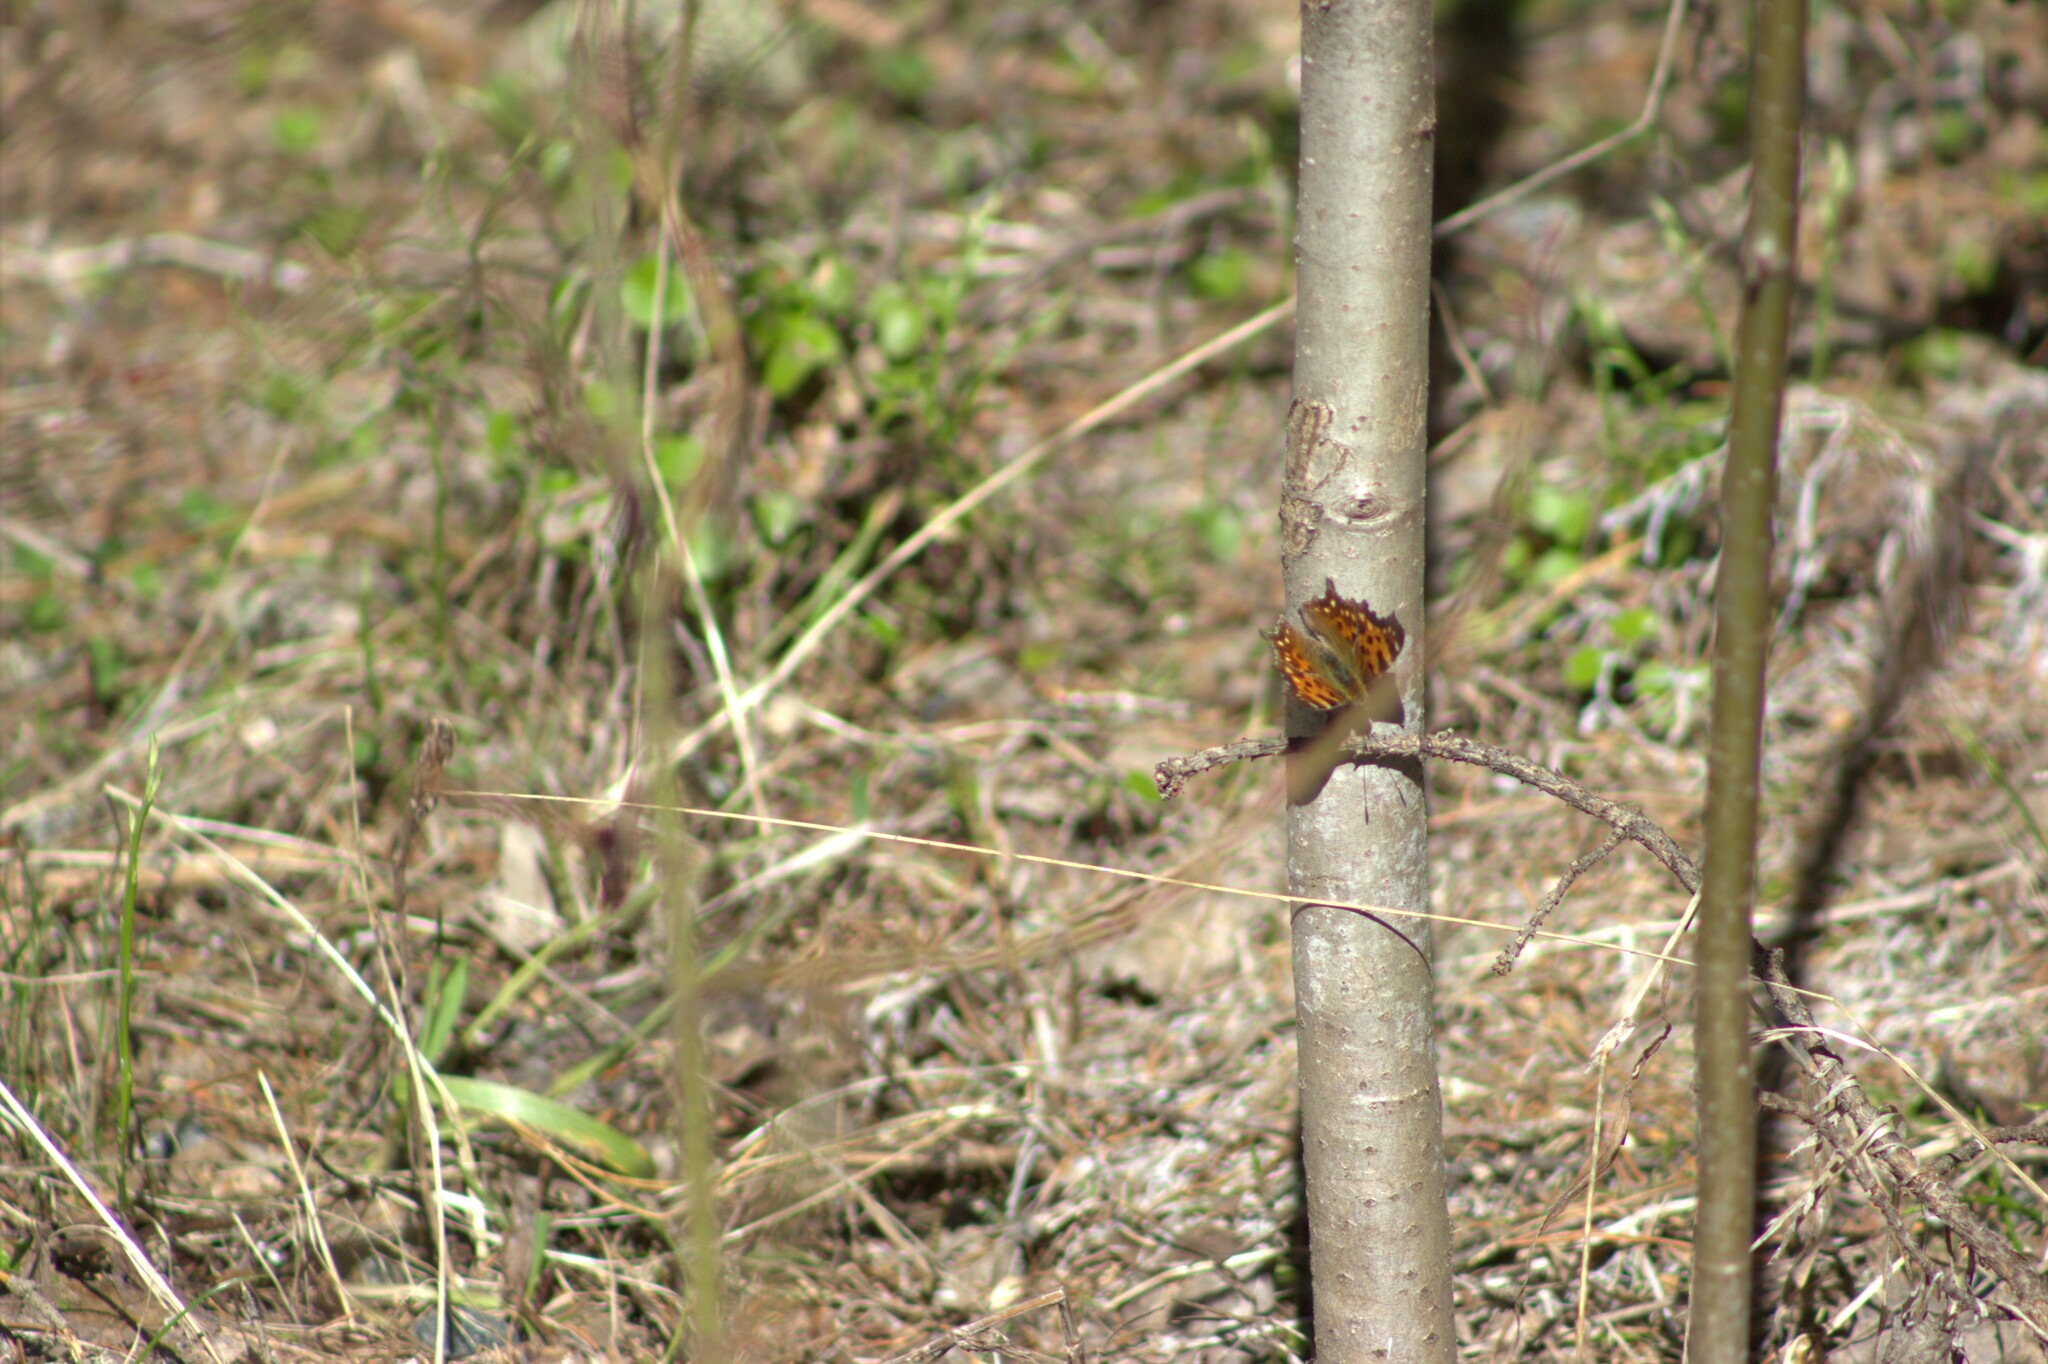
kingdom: Animalia
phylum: Arthropoda
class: Insecta
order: Lepidoptera
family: Nymphalidae
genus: Polygonia
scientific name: Polygonia c-album
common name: Comma
